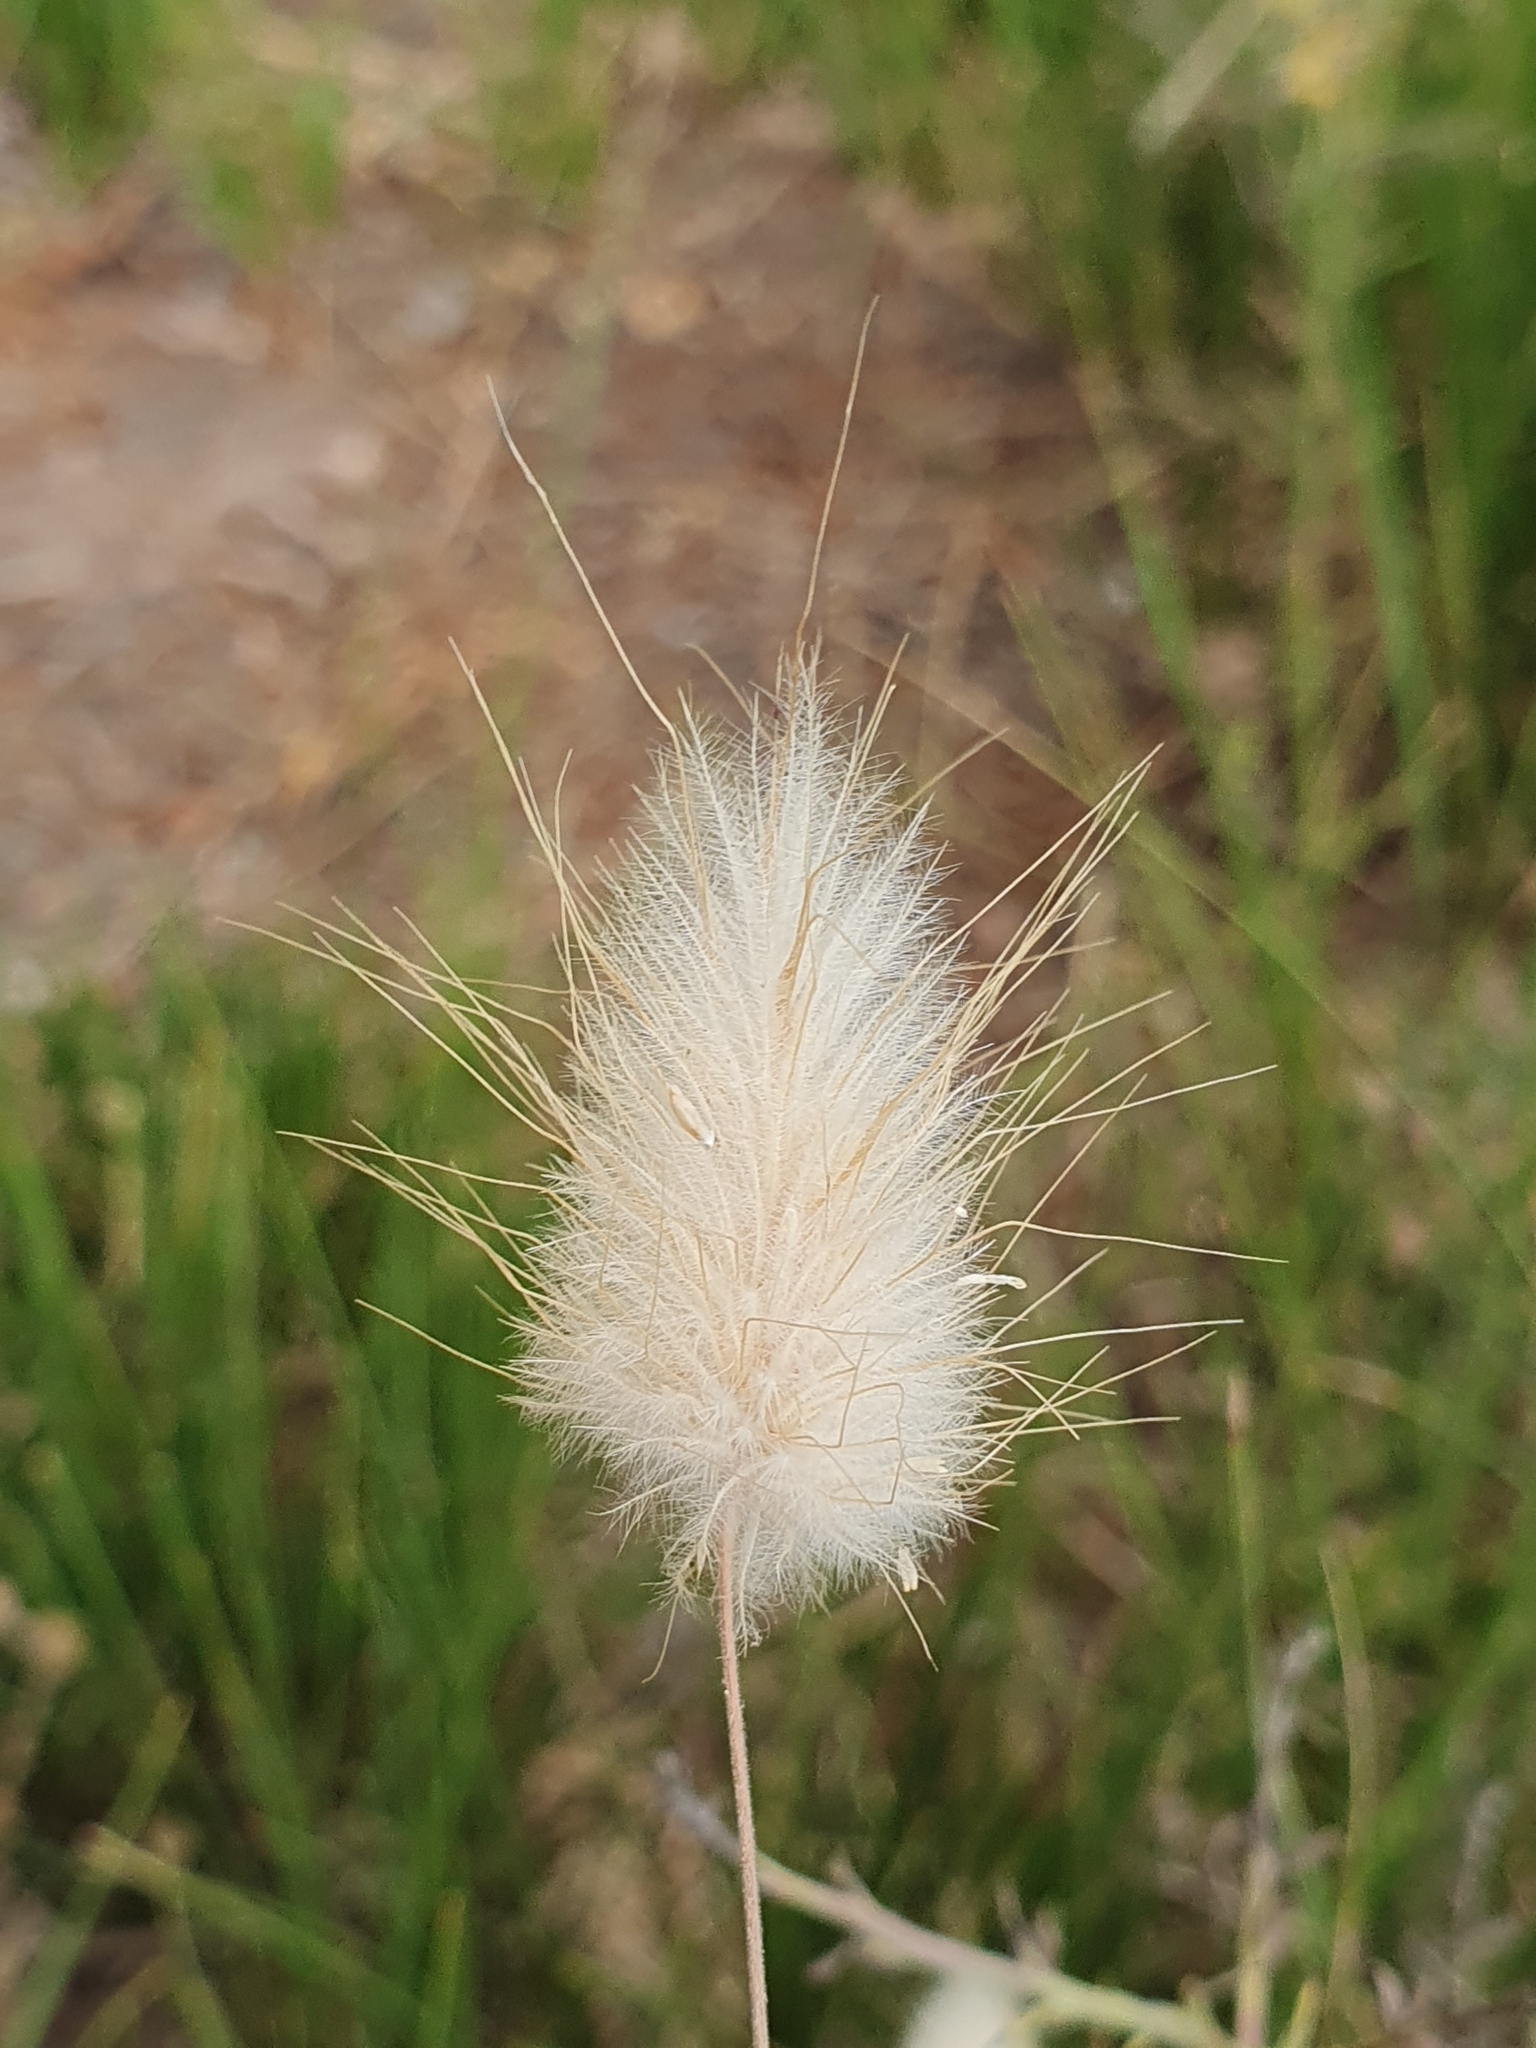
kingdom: Plantae
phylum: Tracheophyta
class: Liliopsida
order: Poales
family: Poaceae
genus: Lagurus
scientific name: Lagurus ovatus
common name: Hare's-tail
